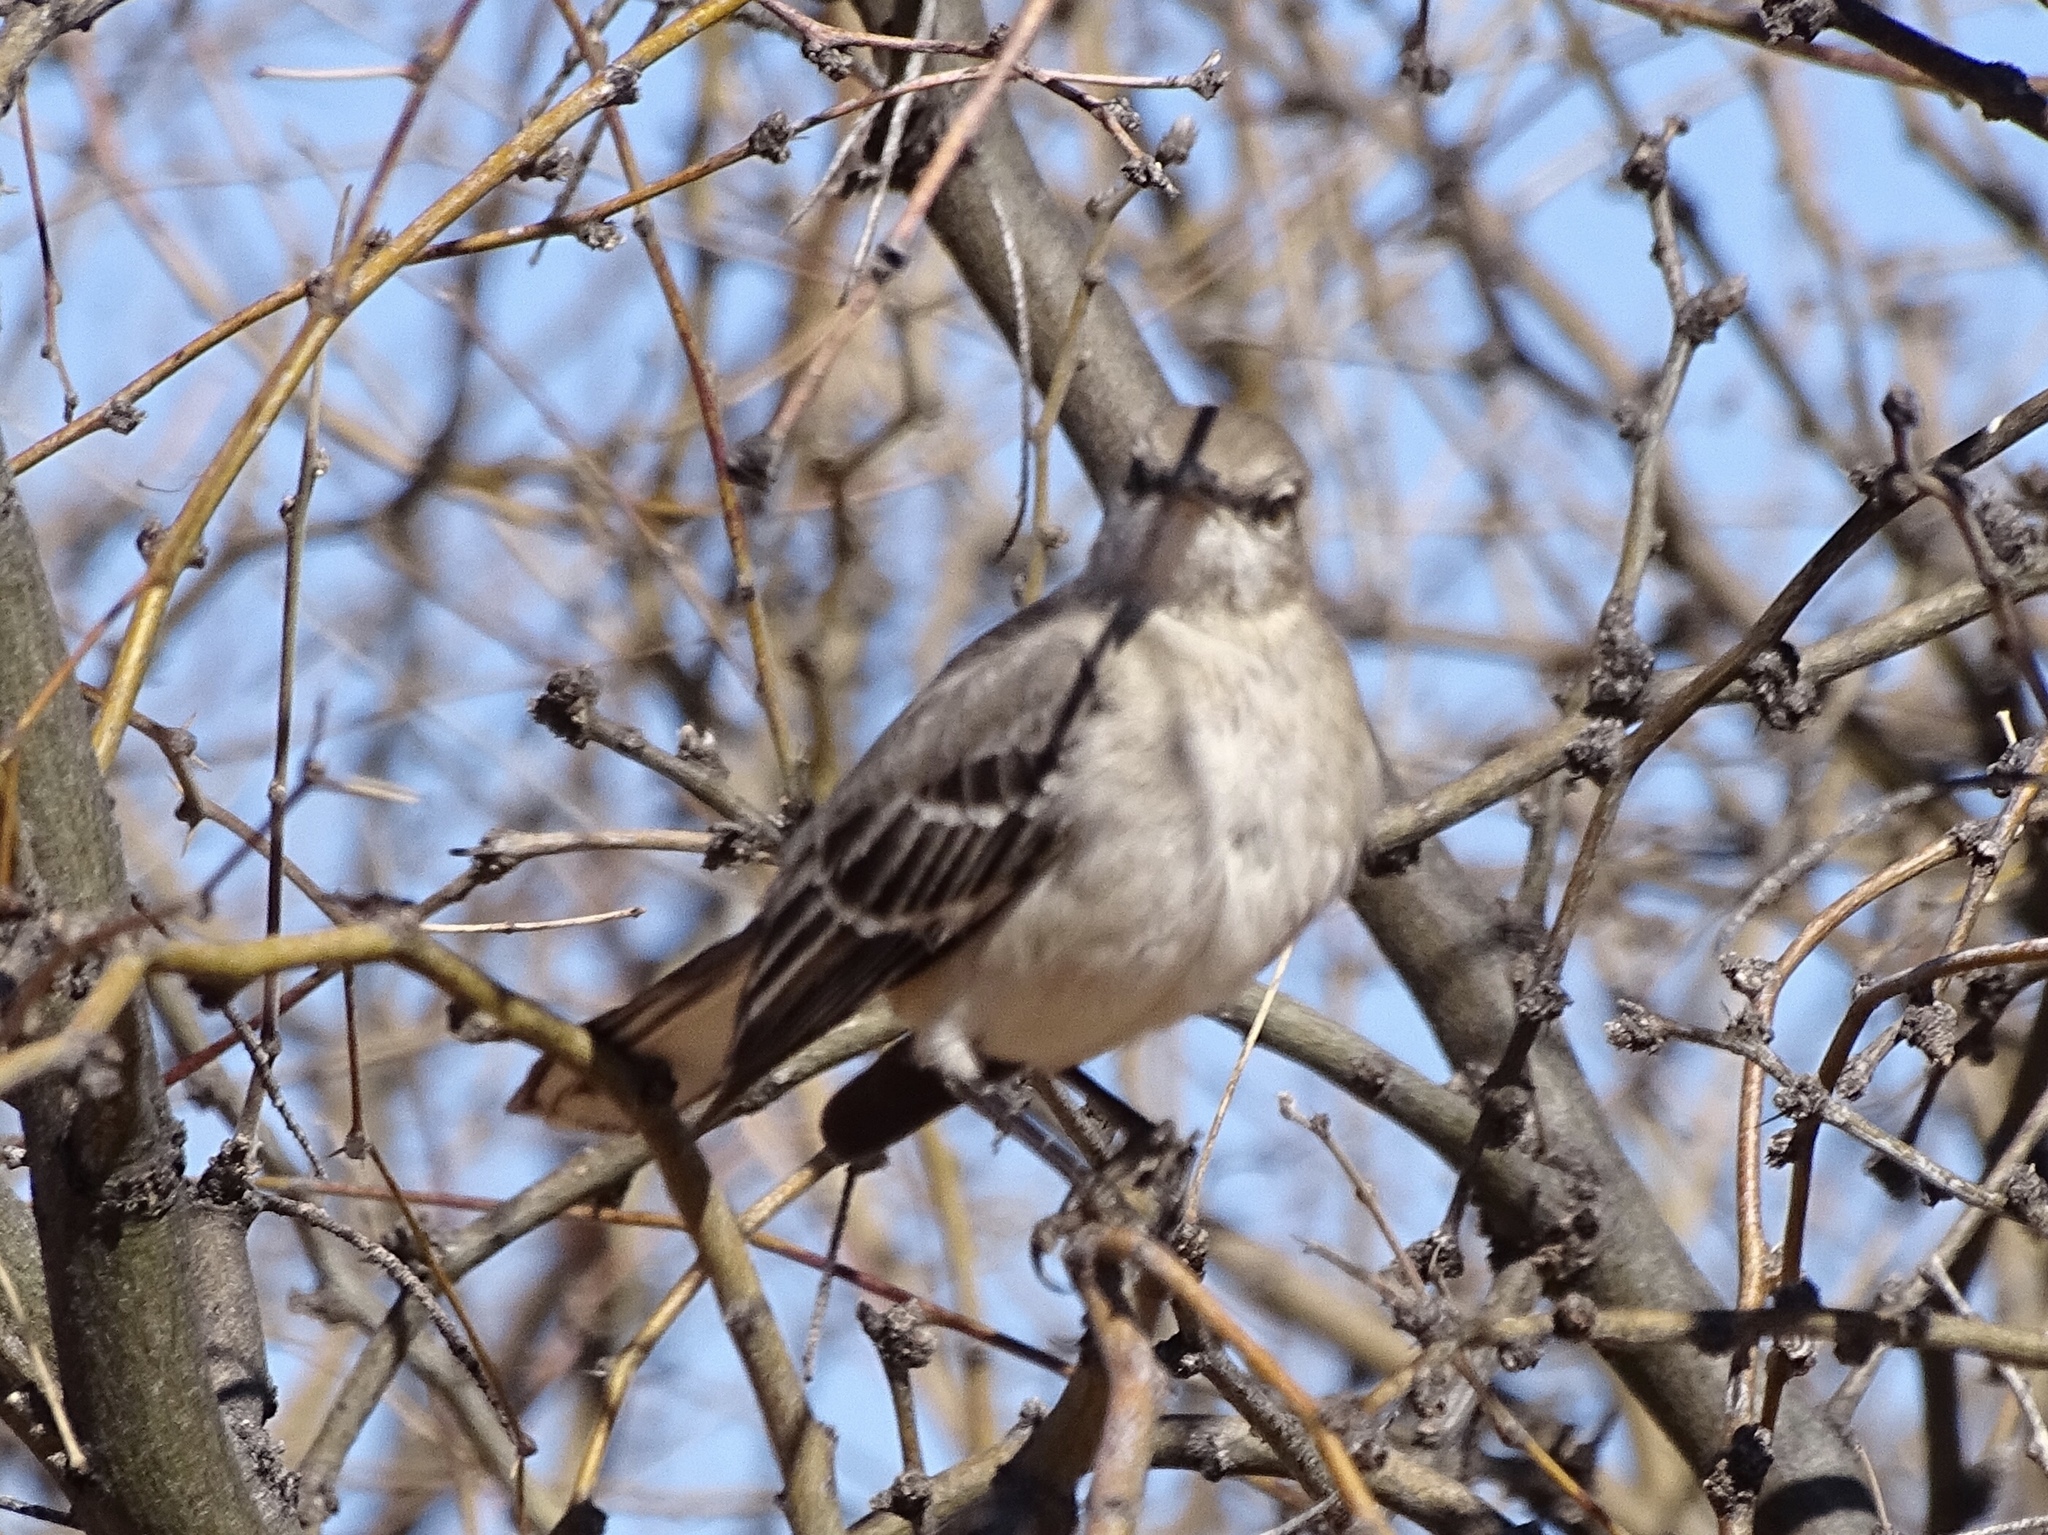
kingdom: Animalia
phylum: Chordata
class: Aves
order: Passeriformes
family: Mimidae
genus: Mimus
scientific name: Mimus polyglottos
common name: Northern mockingbird
